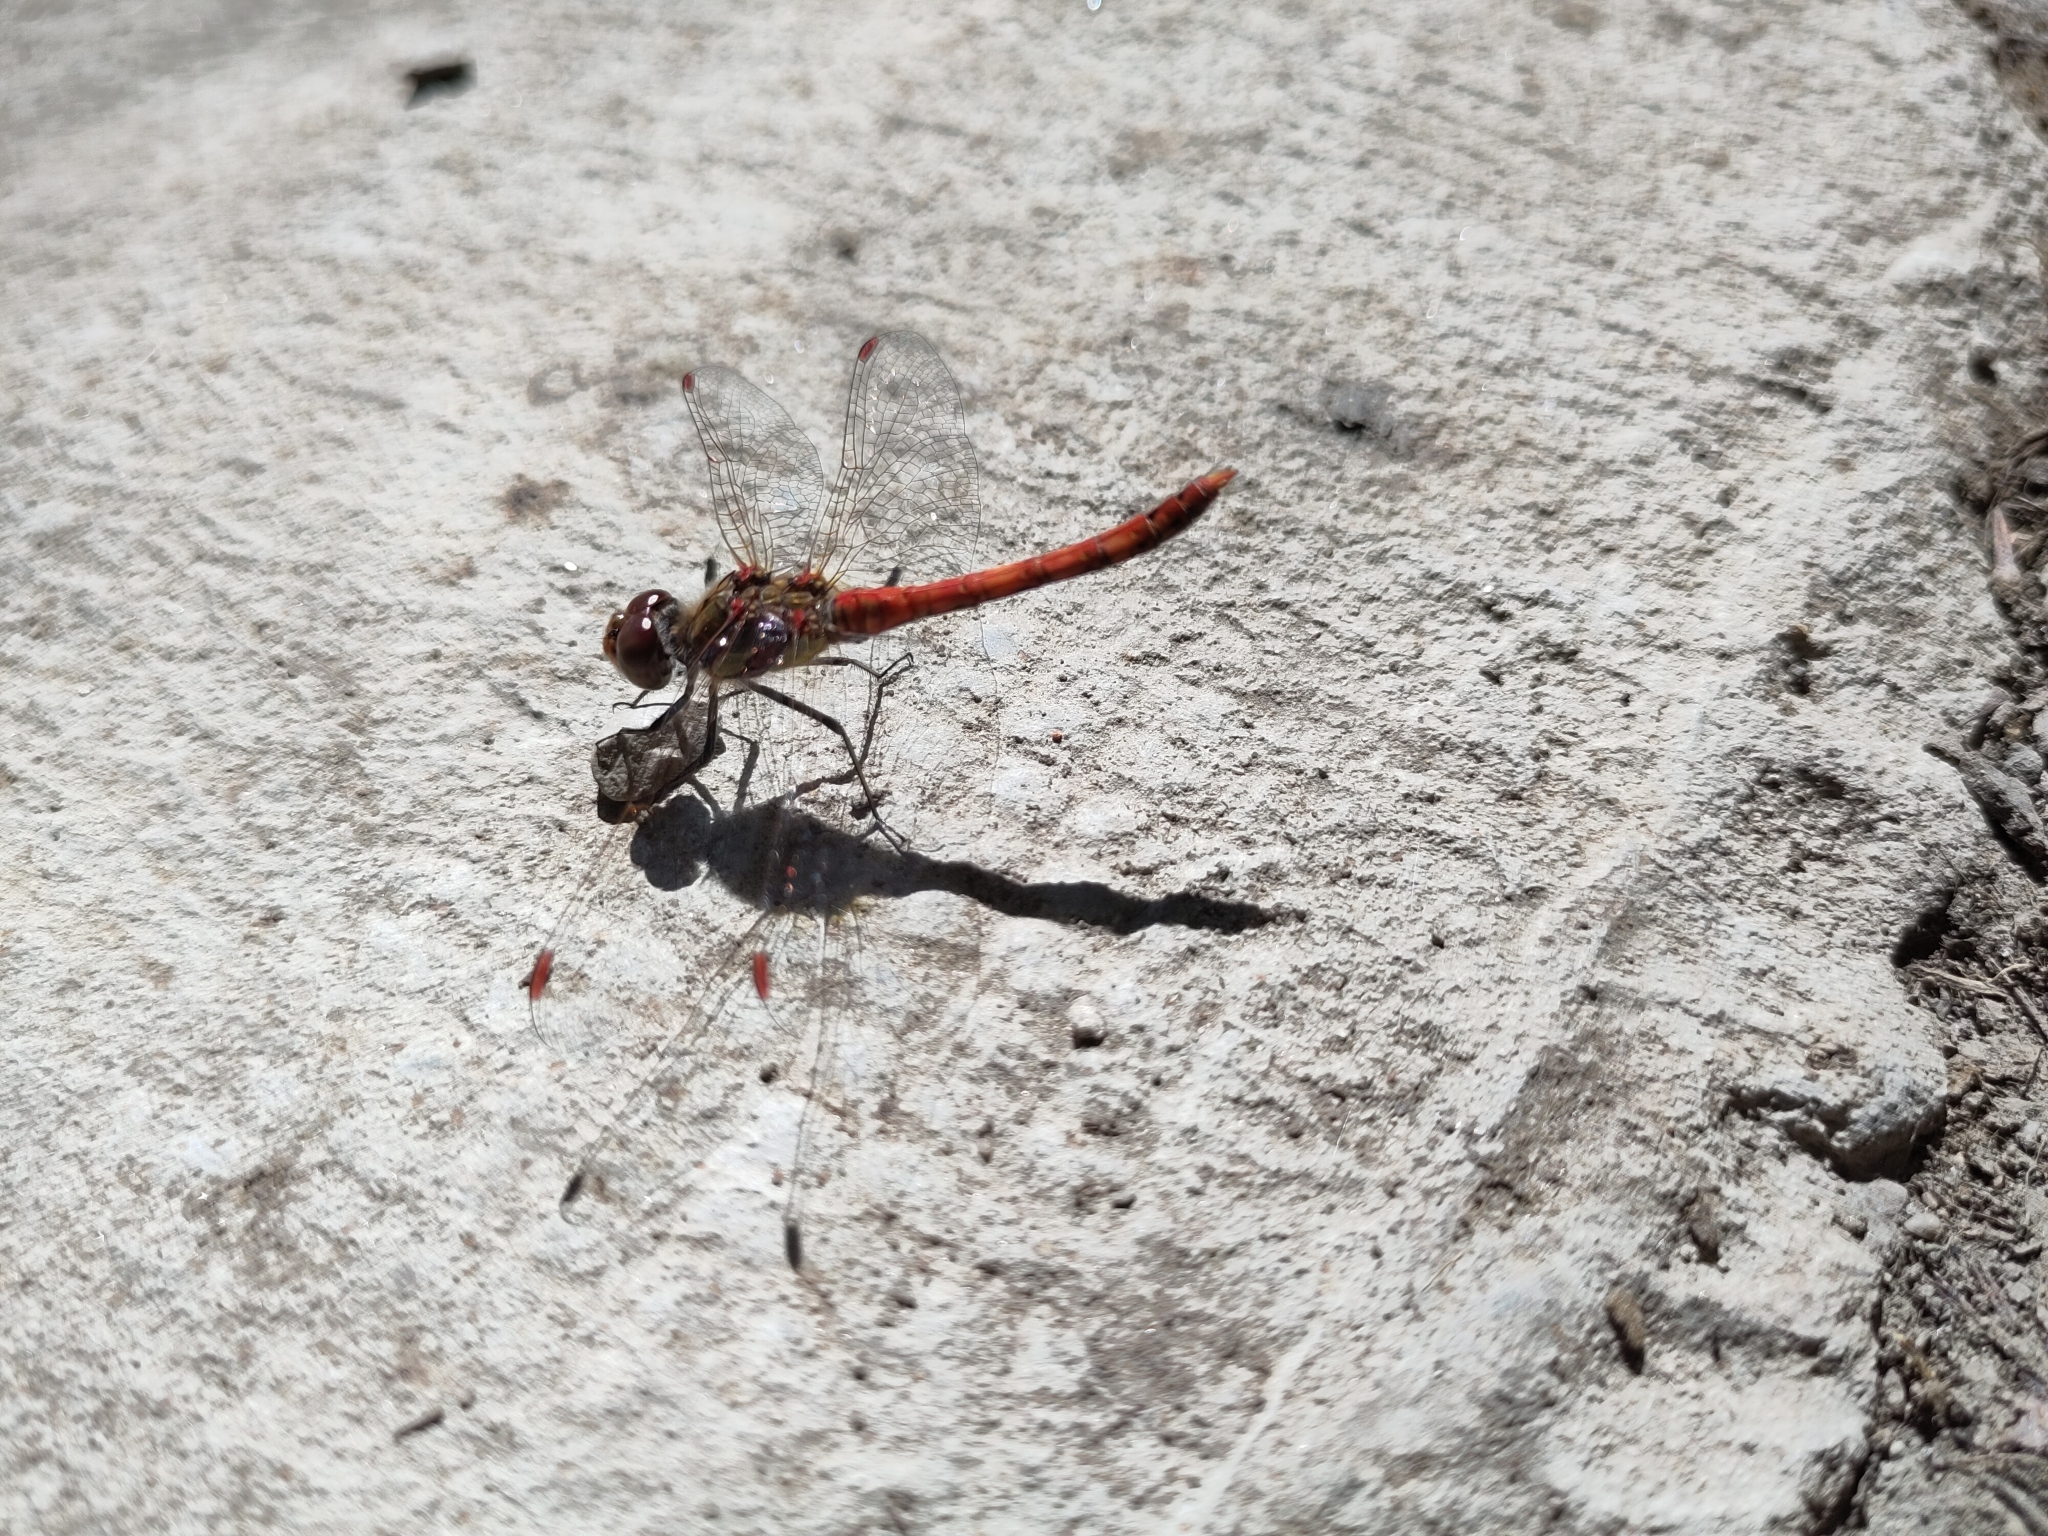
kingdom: Animalia
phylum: Arthropoda
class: Insecta
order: Odonata
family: Libellulidae
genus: Sympetrum
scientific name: Sympetrum sanguineum
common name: Ruddy darter
